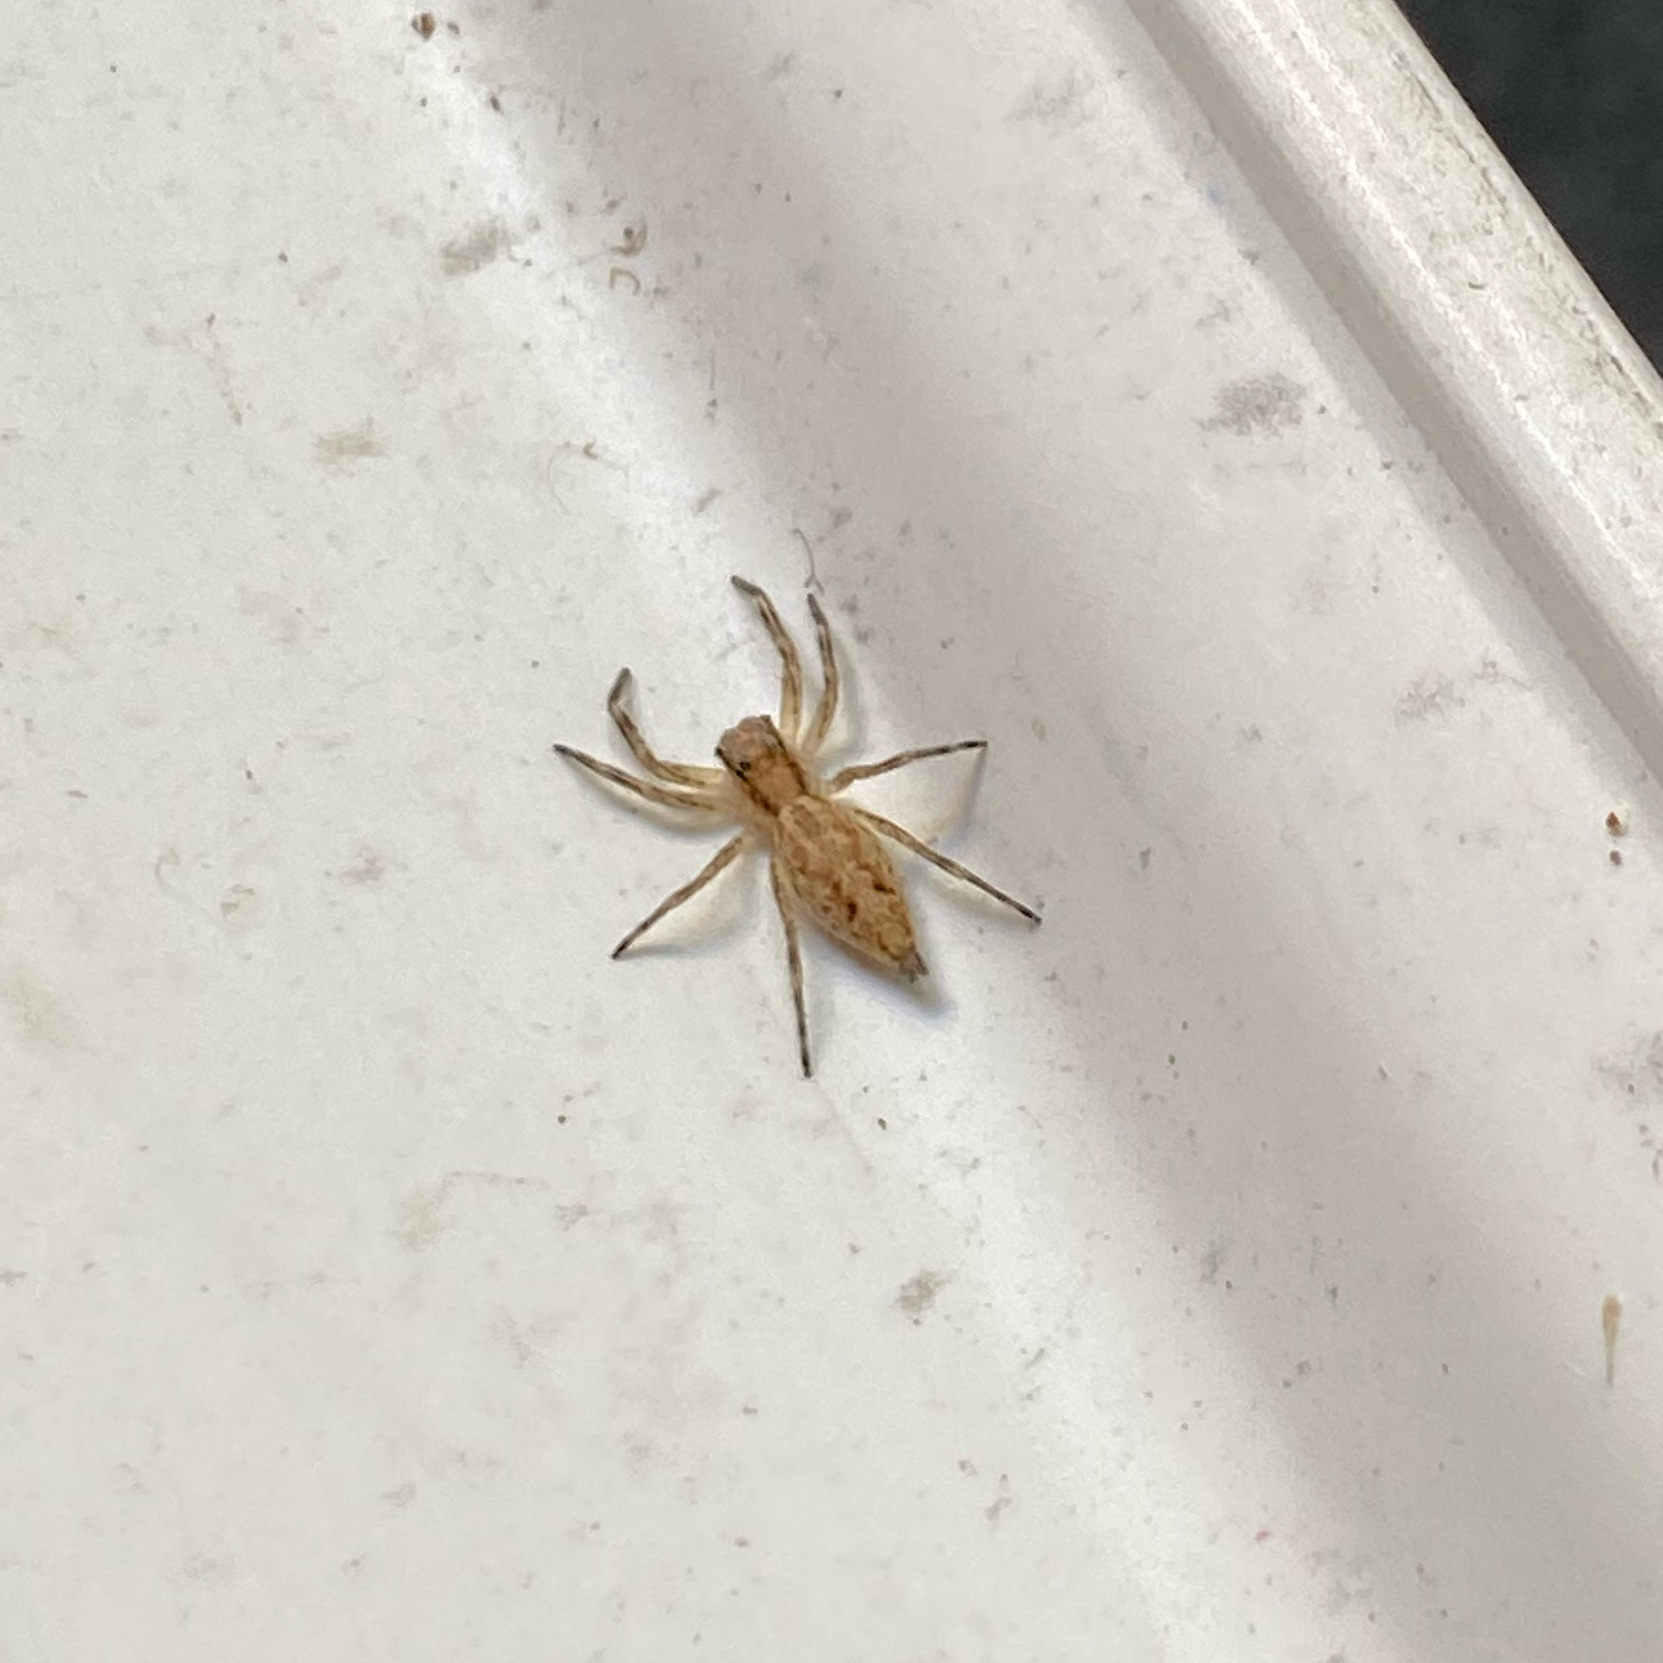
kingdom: Animalia
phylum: Arthropoda
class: Arachnida
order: Araneae
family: Salticidae
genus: Helpis
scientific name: Helpis minitabunda
